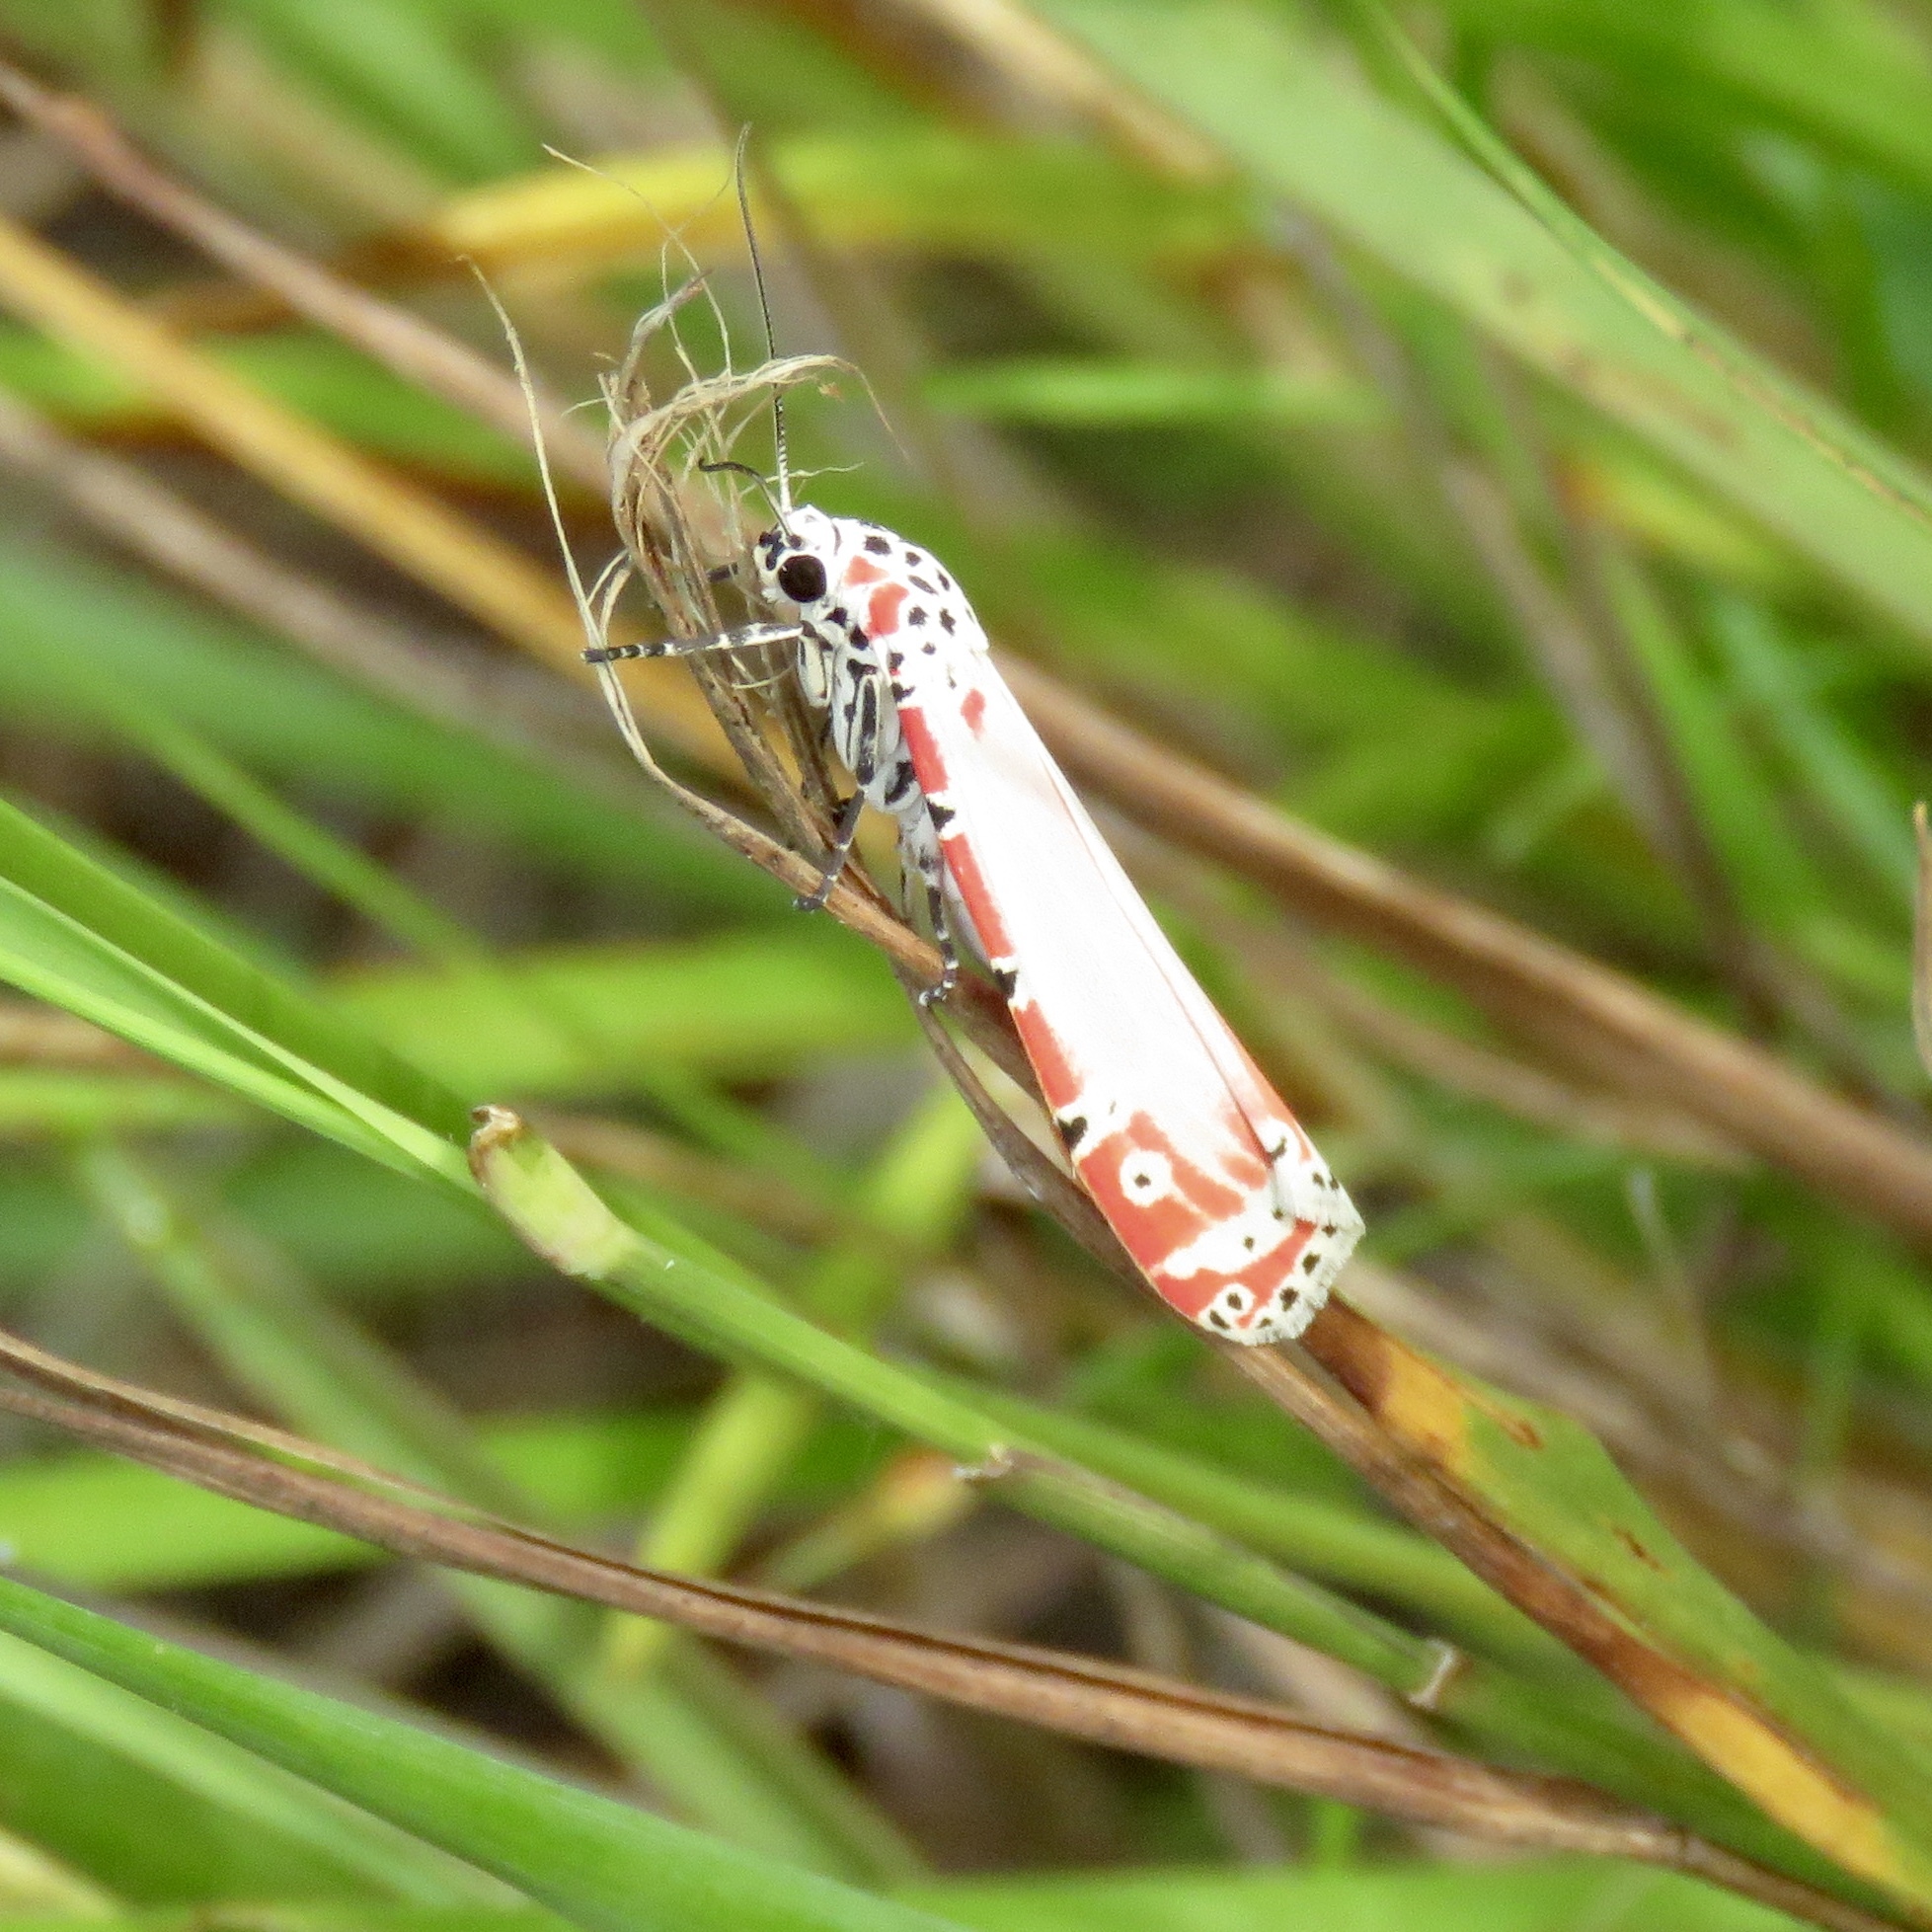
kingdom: Animalia
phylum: Arthropoda
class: Insecta
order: Lepidoptera
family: Erebidae
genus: Utetheisa
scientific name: Utetheisa ornatrix
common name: Beautiful utetheisa
